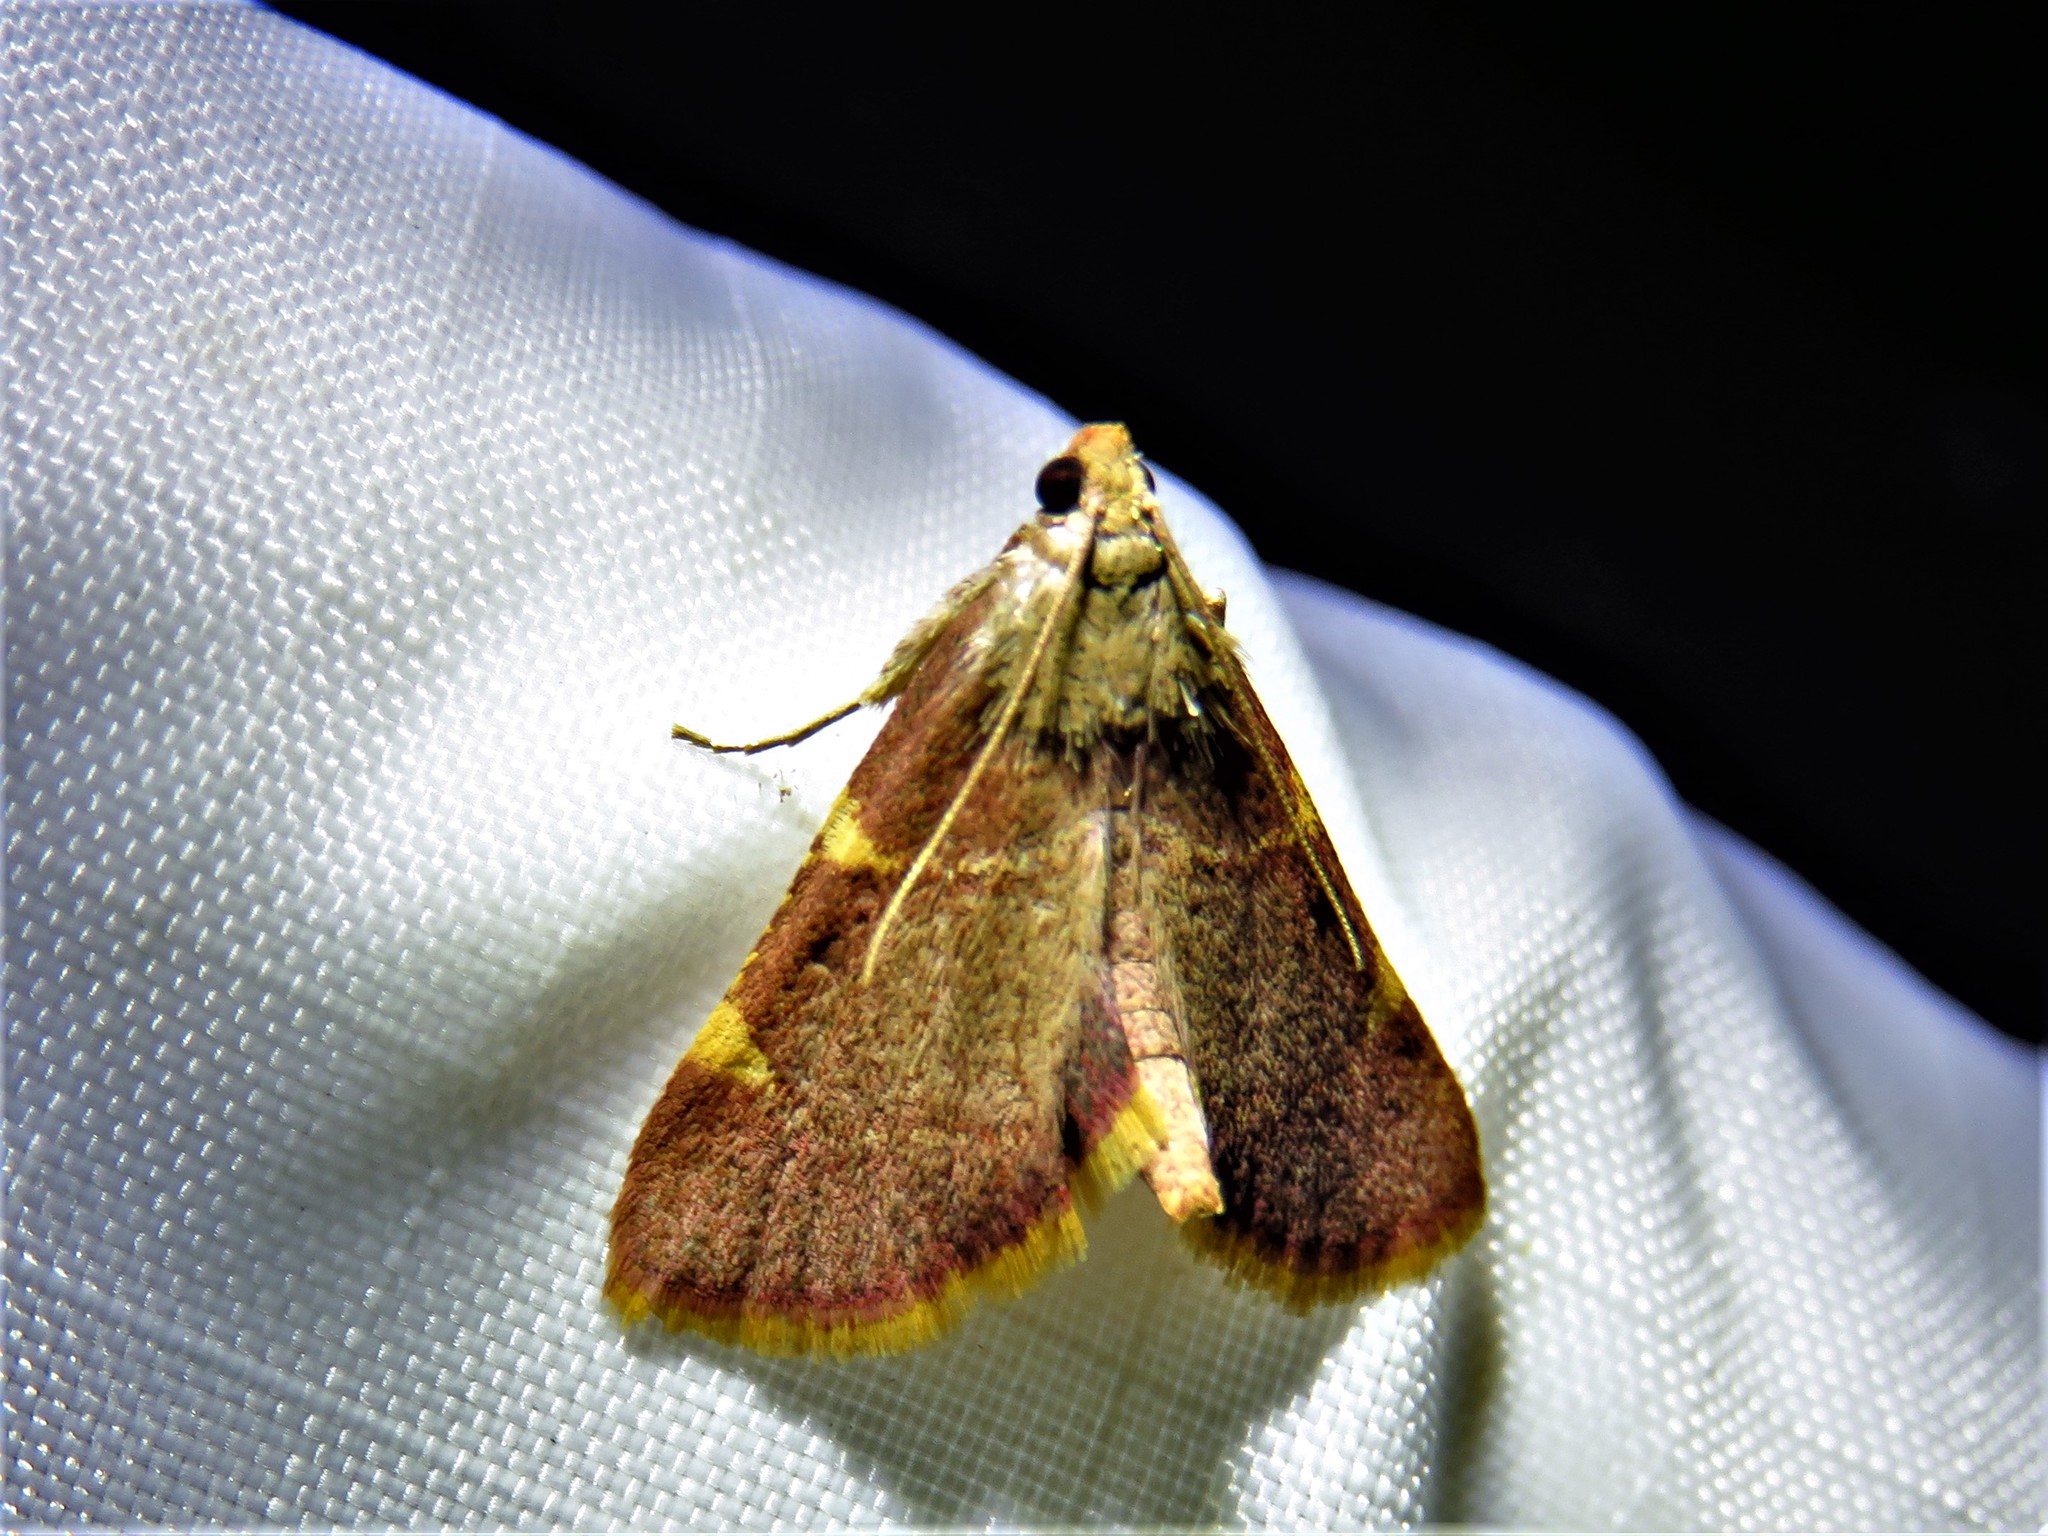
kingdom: Animalia
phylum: Arthropoda
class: Insecta
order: Lepidoptera
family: Pyralidae
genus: Hypsopygia
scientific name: Hypsopygia olinalis
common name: Yellow-fringed dolichomia moth
